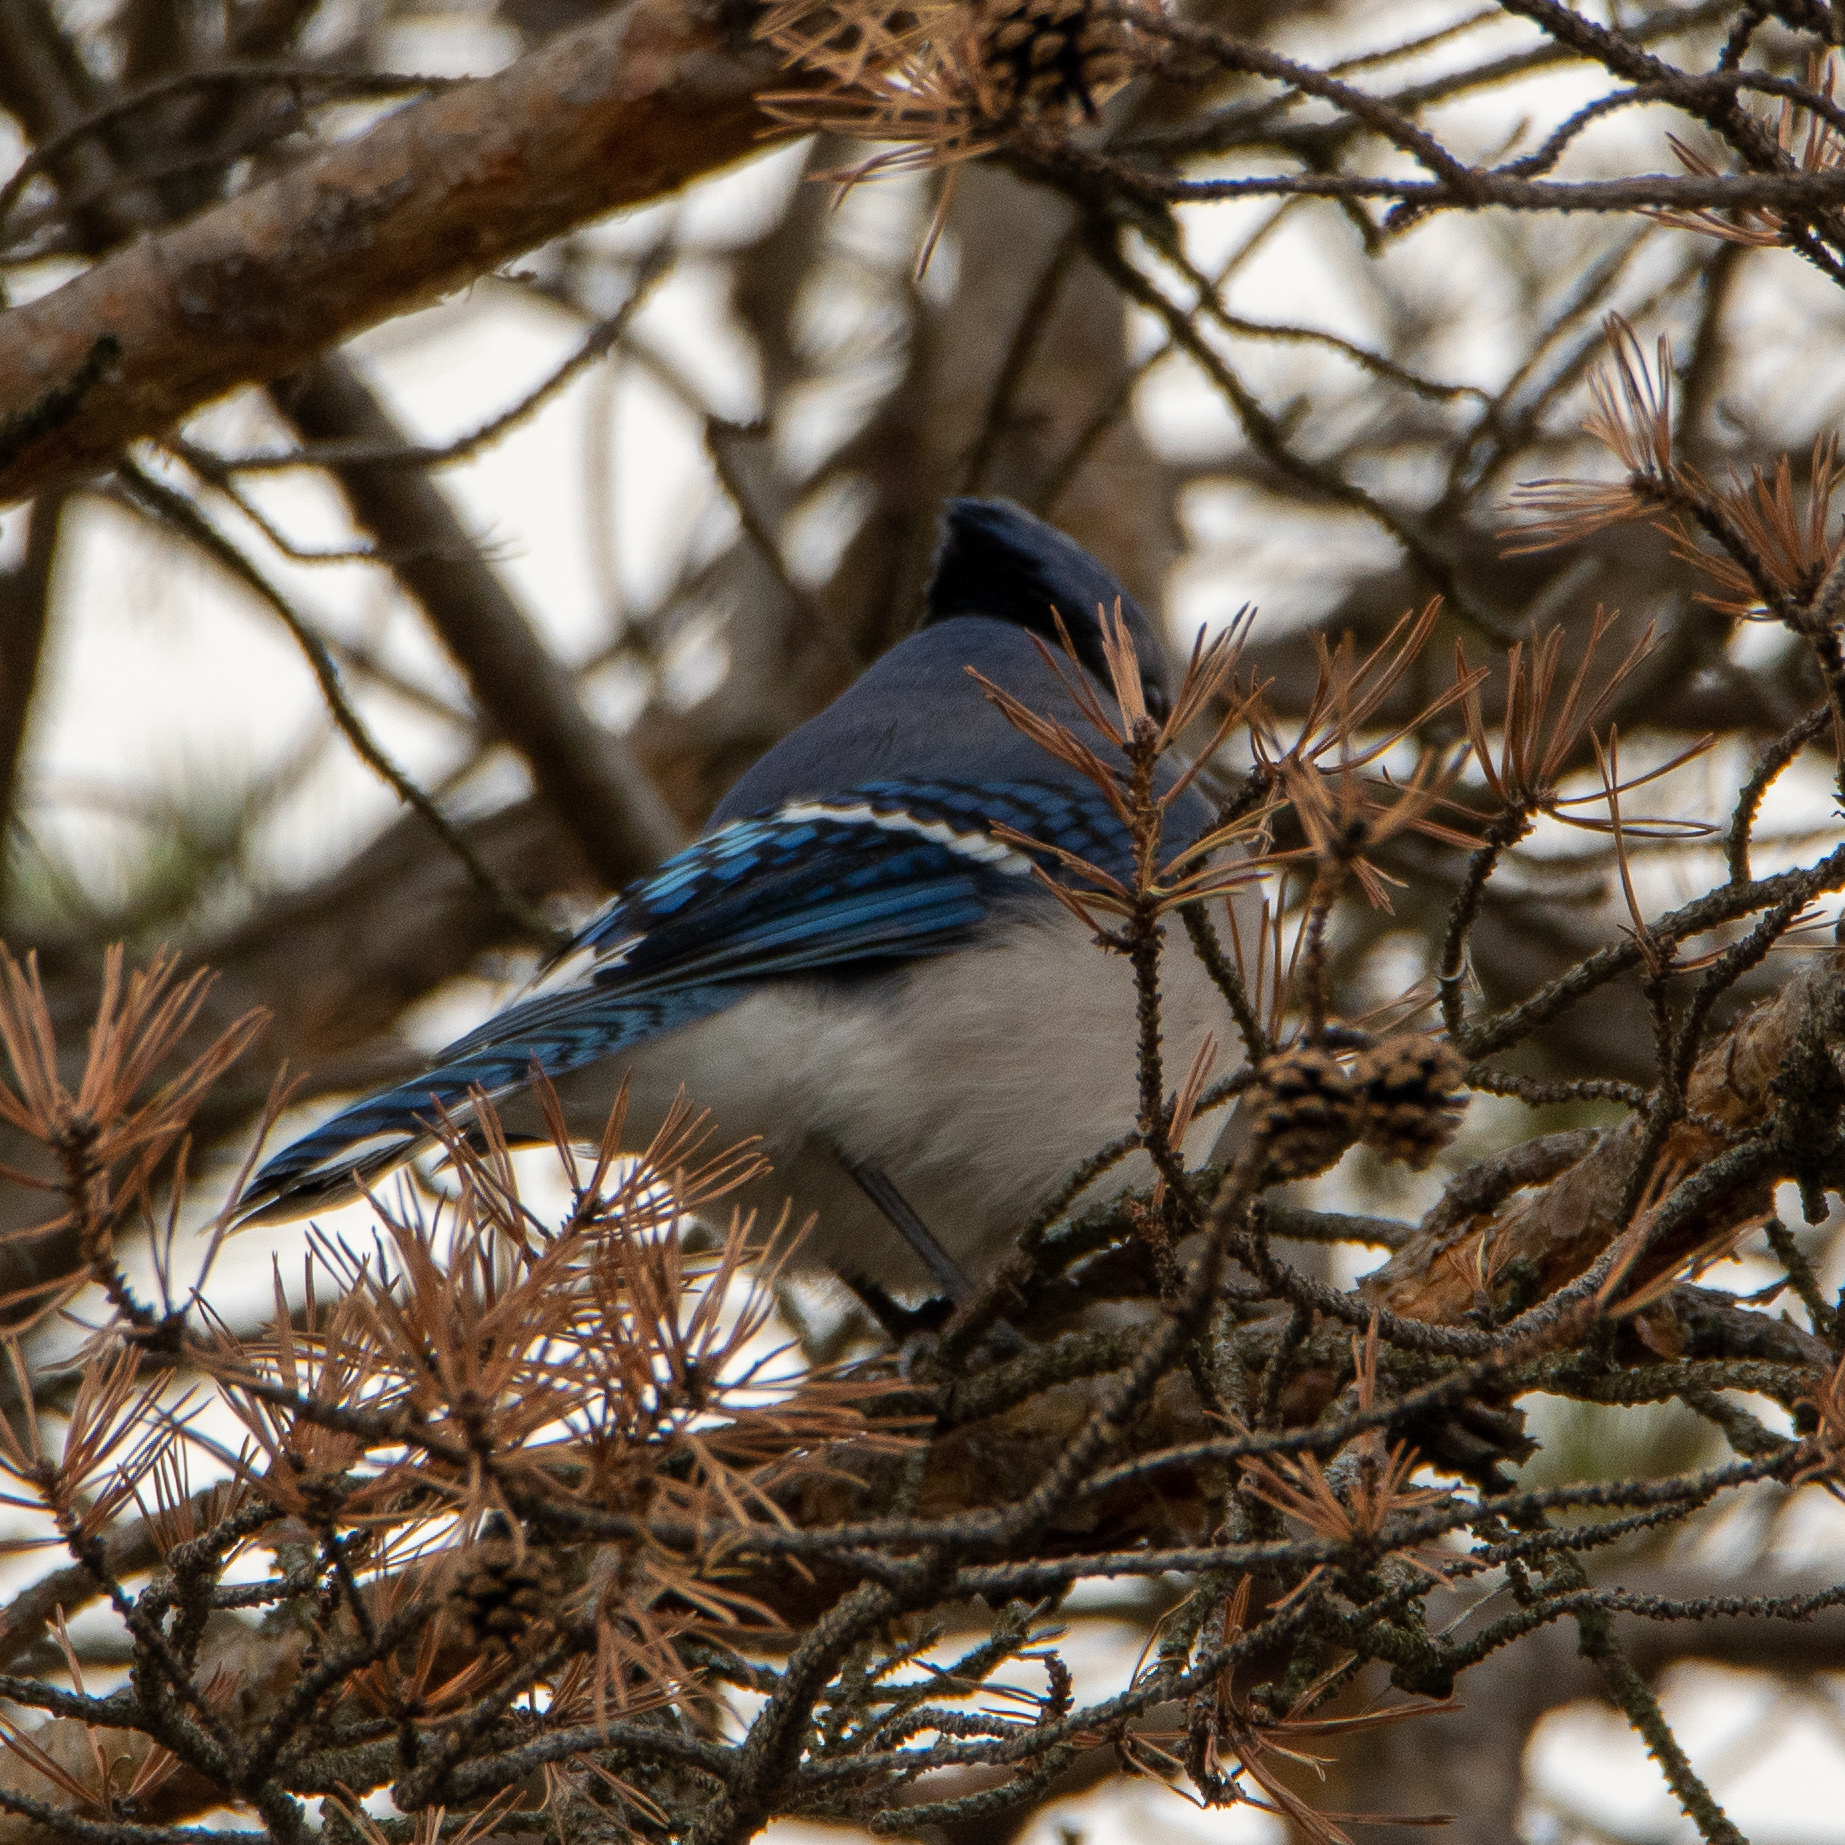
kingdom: Animalia
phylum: Chordata
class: Aves
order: Passeriformes
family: Corvidae
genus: Cyanocitta
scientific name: Cyanocitta cristata
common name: Blue jay
